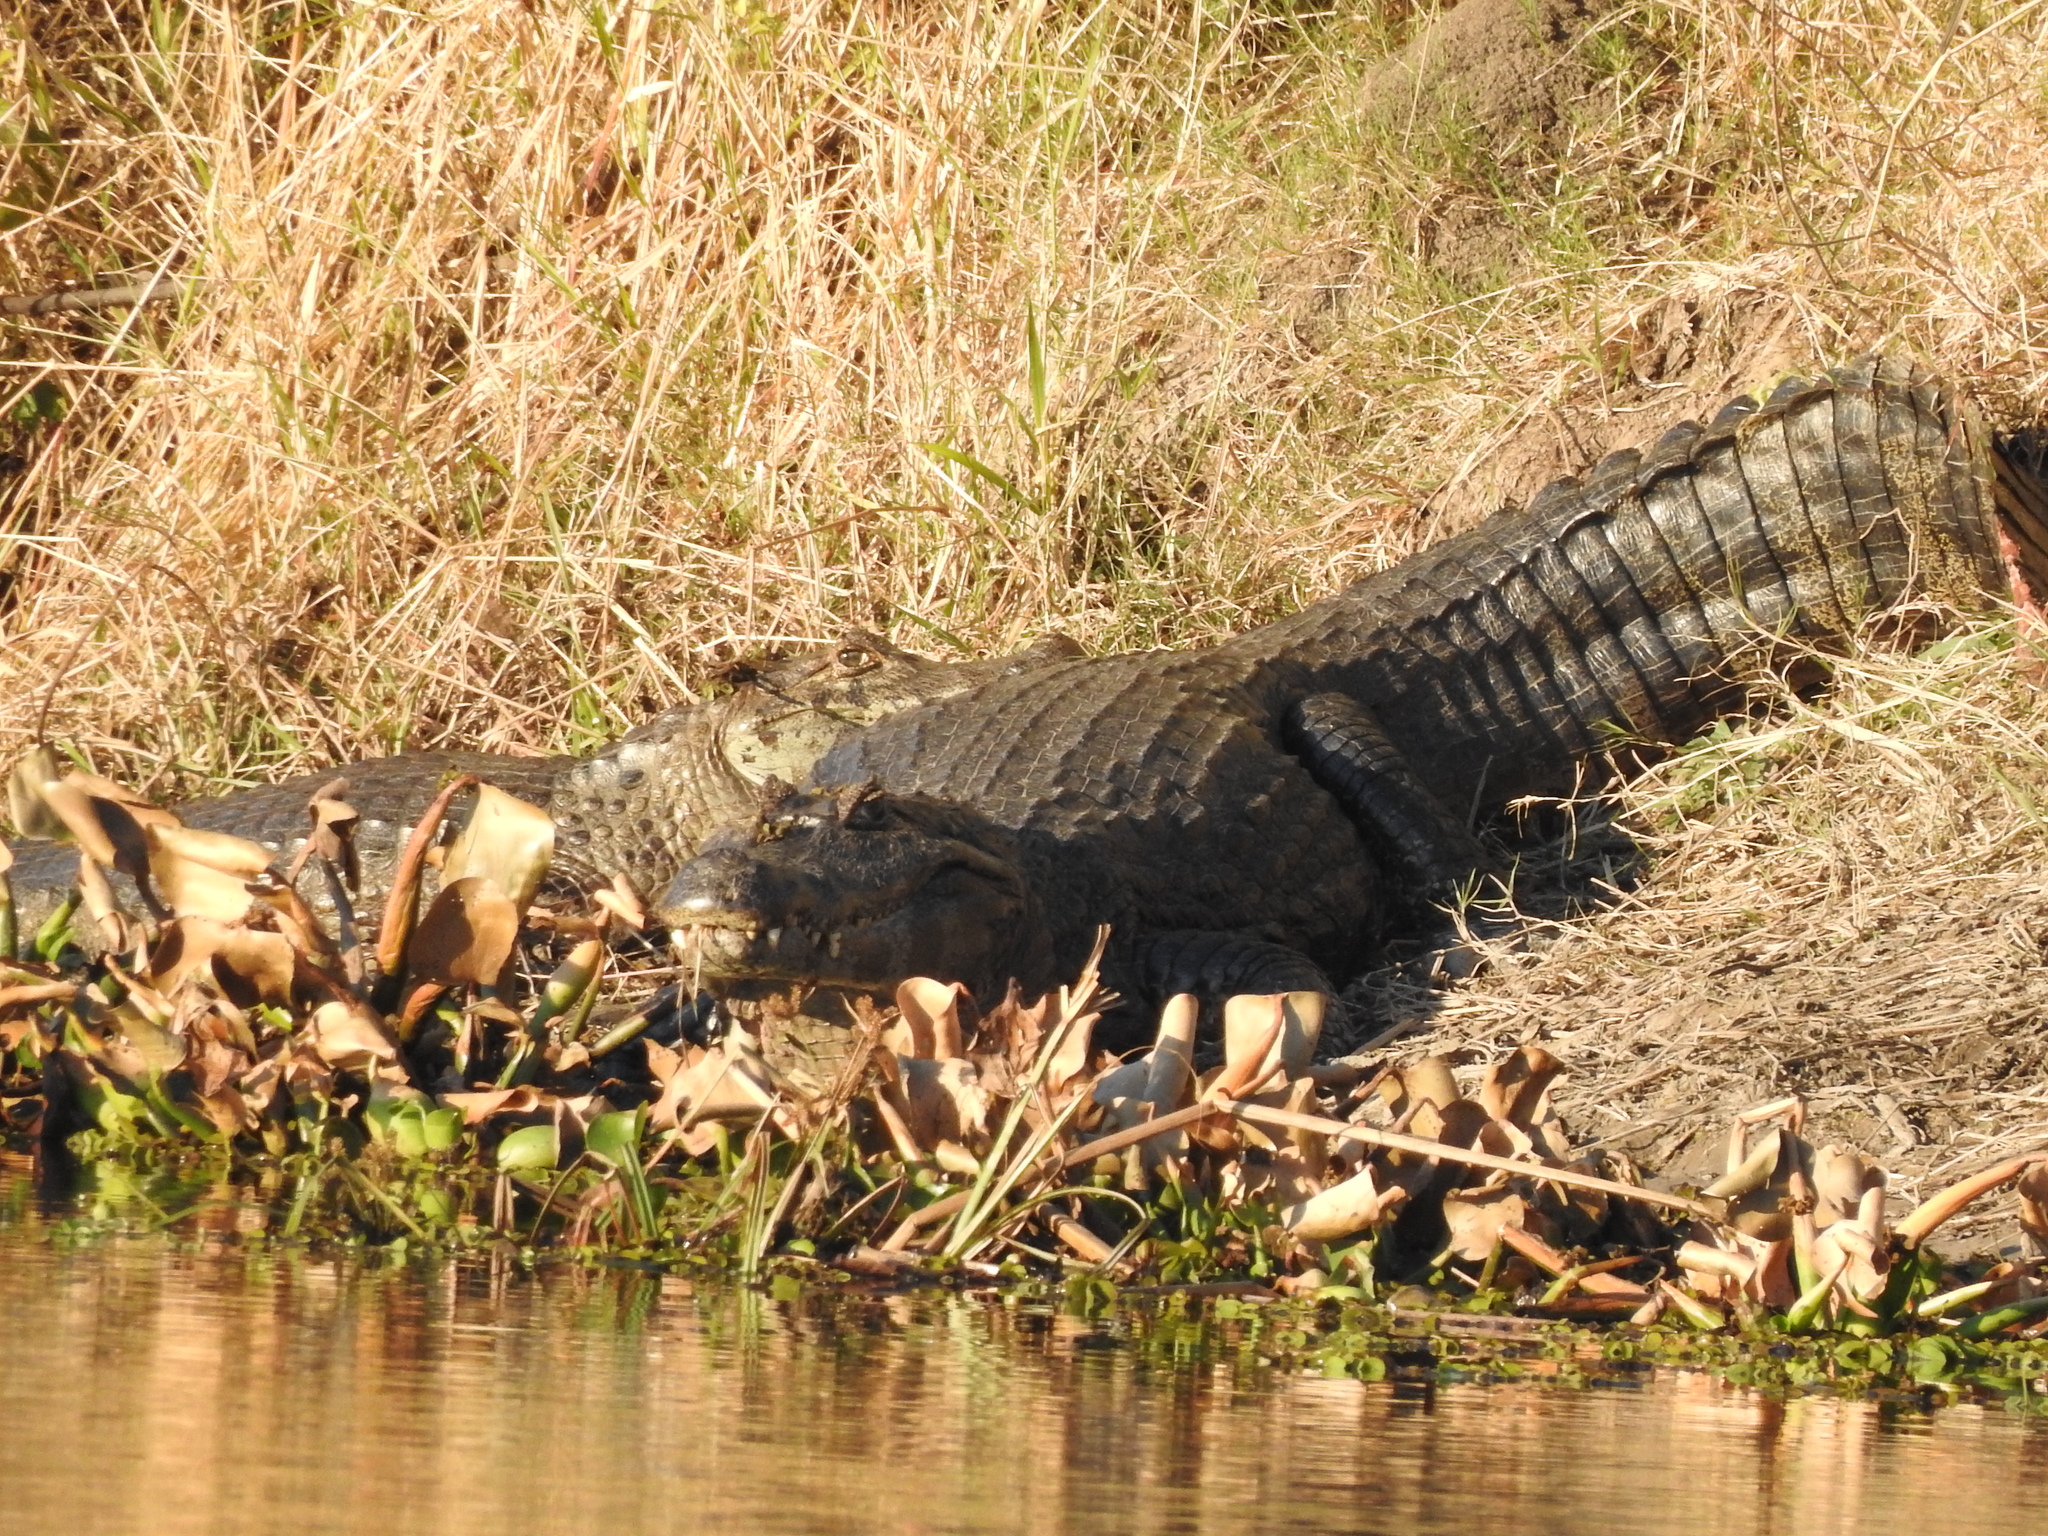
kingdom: Animalia
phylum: Chordata
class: Crocodylia
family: Alligatoridae
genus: Caiman
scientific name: Caiman yacare
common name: Yacare caiman
